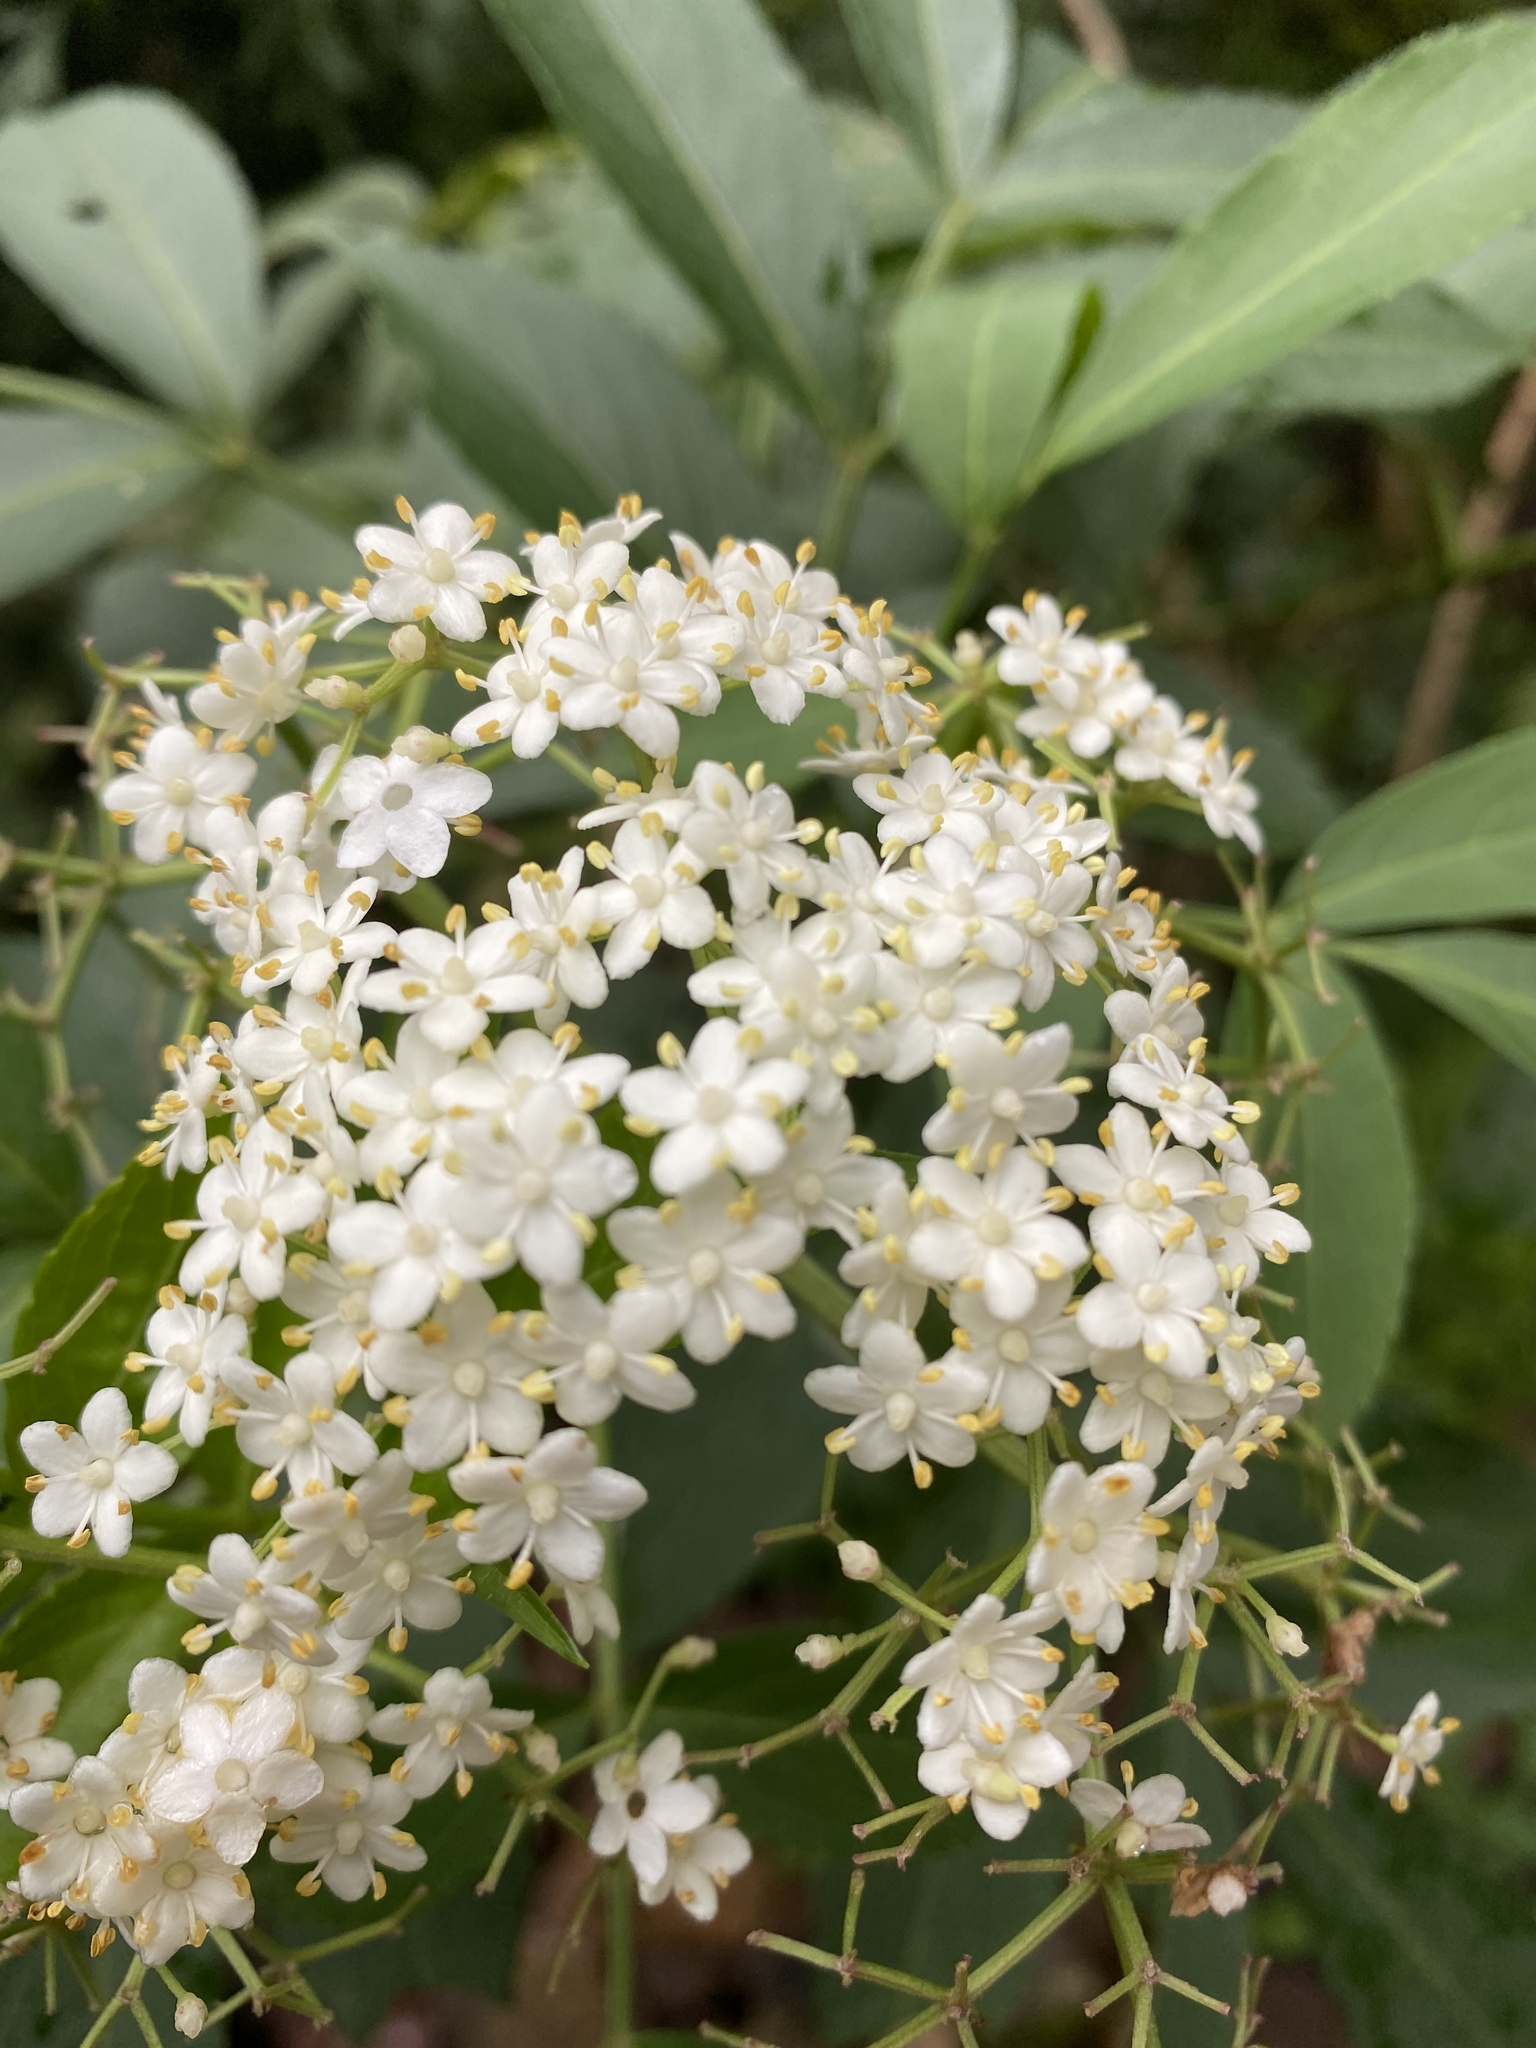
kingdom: Plantae
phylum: Tracheophyta
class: Magnoliopsida
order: Dipsacales
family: Viburnaceae
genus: Sambucus
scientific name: Sambucus canadensis
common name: American elder
